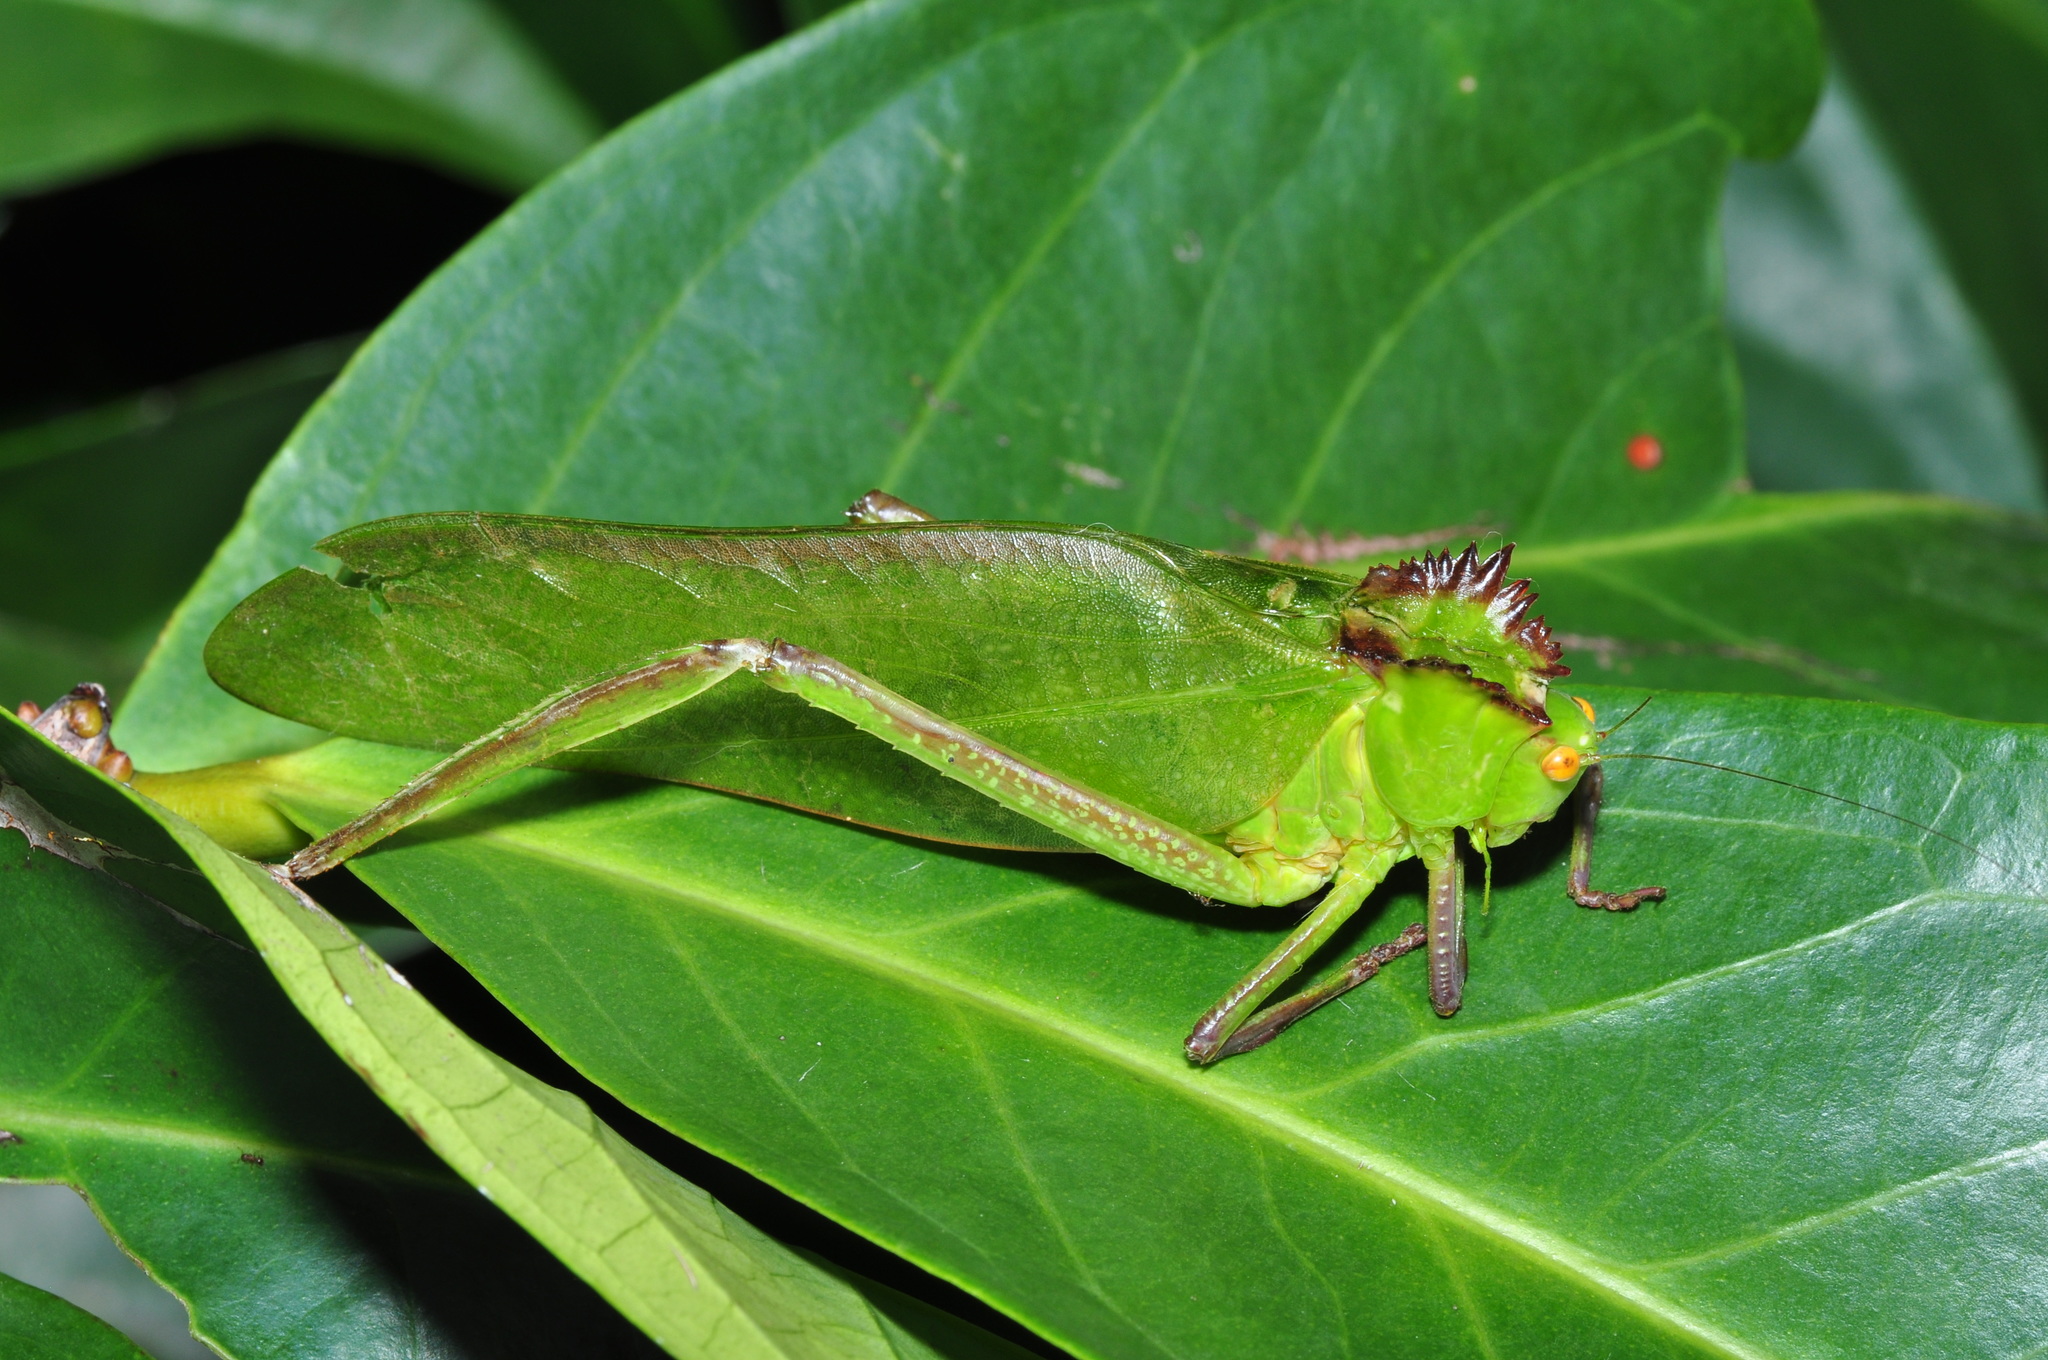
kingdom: Animalia
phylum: Arthropoda
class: Insecta
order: Orthoptera
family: Tettigoniidae
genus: Steirodon
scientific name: Steirodon careovirgulatum
